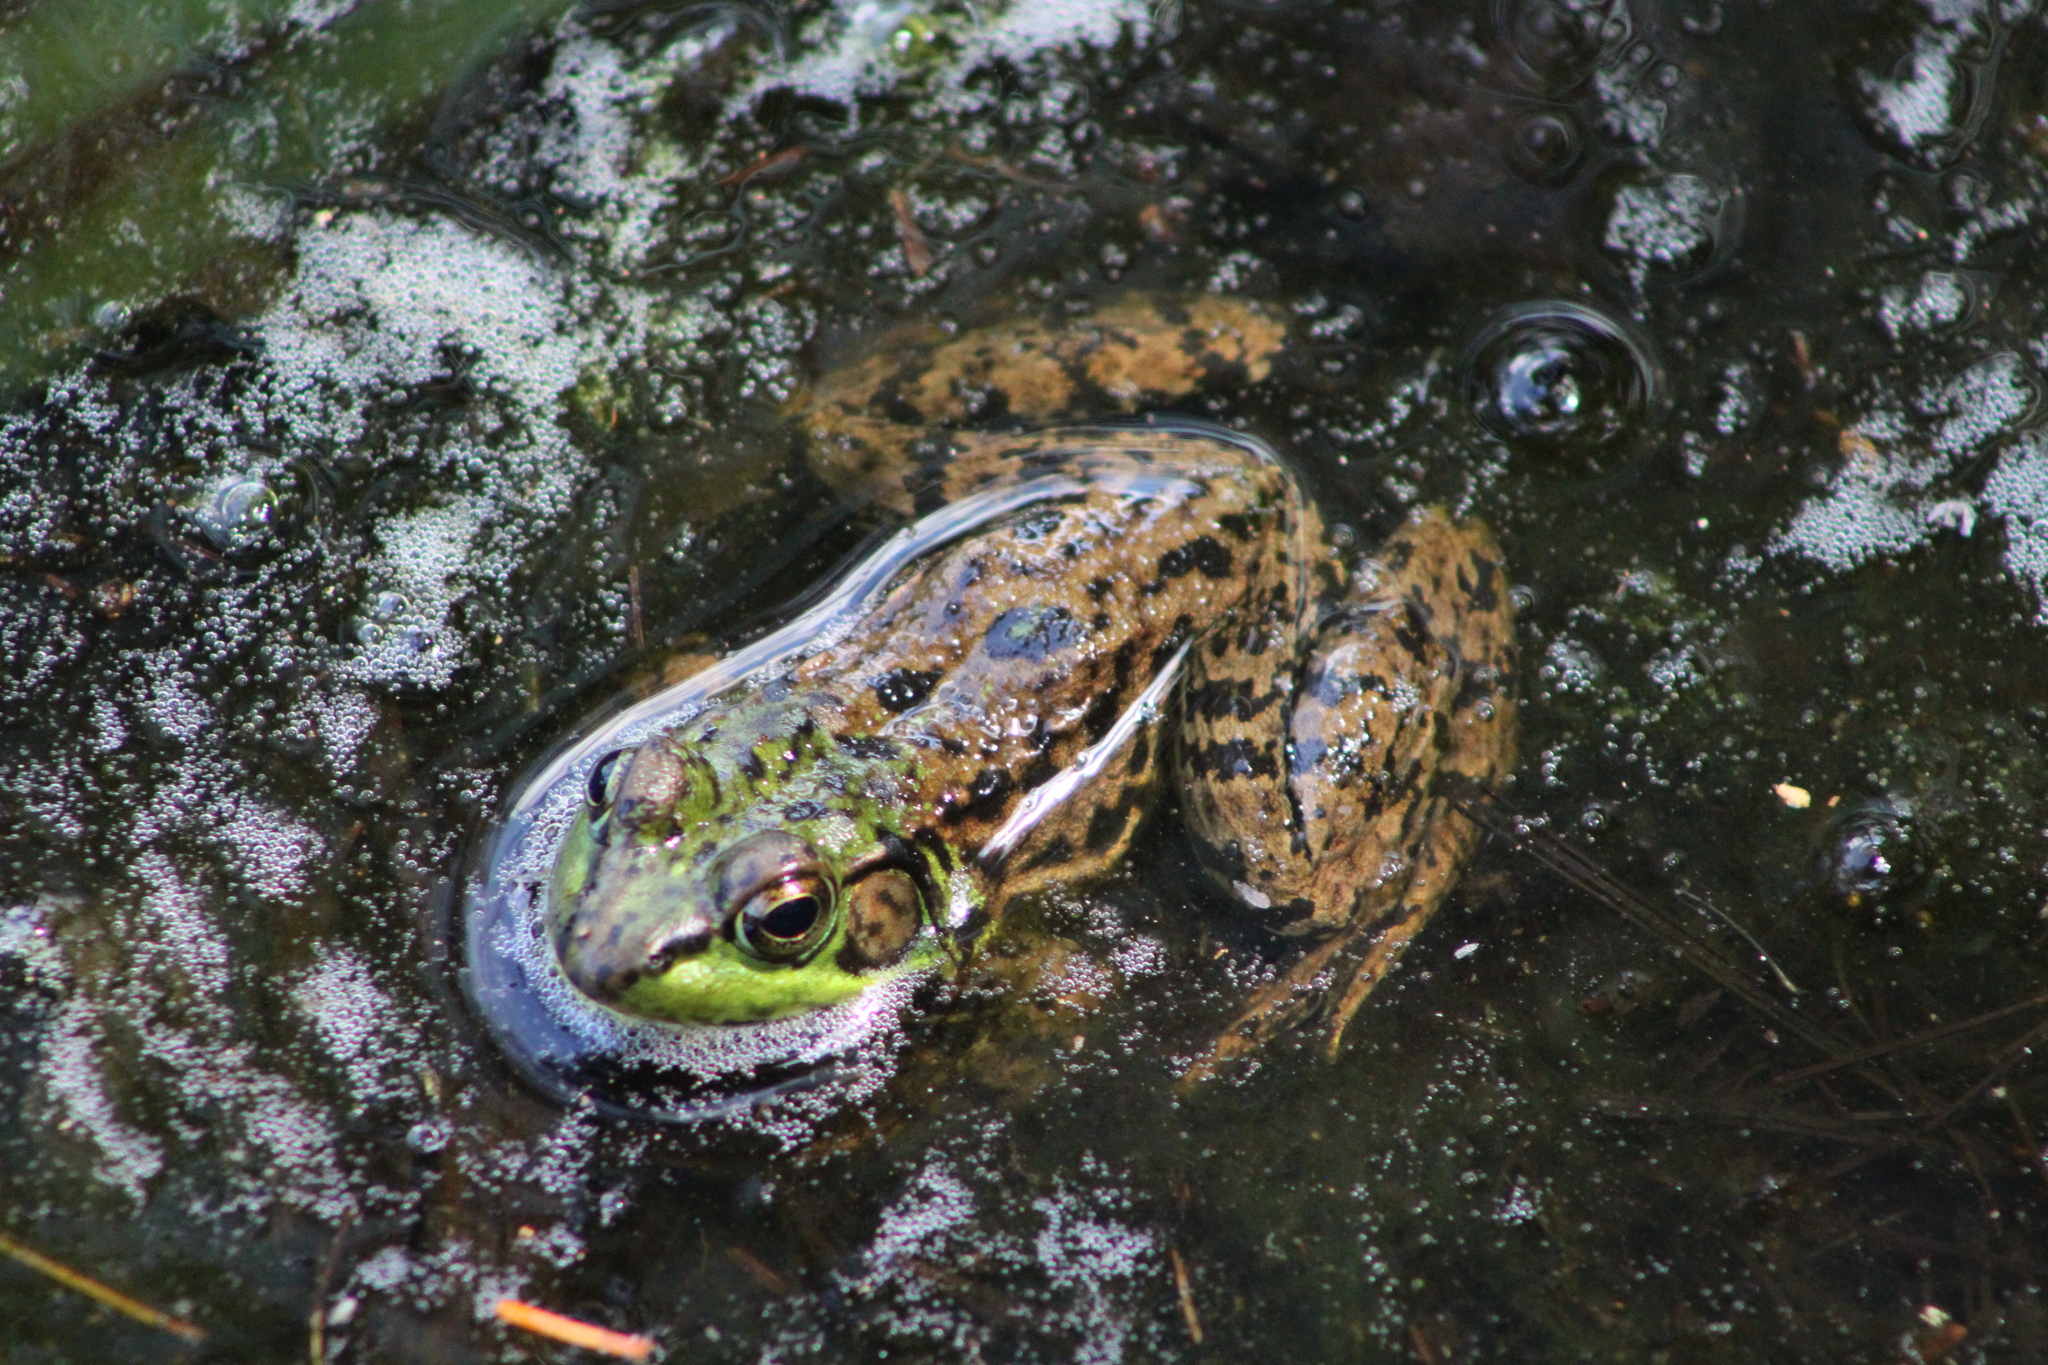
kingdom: Animalia
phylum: Chordata
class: Amphibia
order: Anura
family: Ranidae
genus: Lithobates
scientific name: Lithobates clamitans
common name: Green frog
